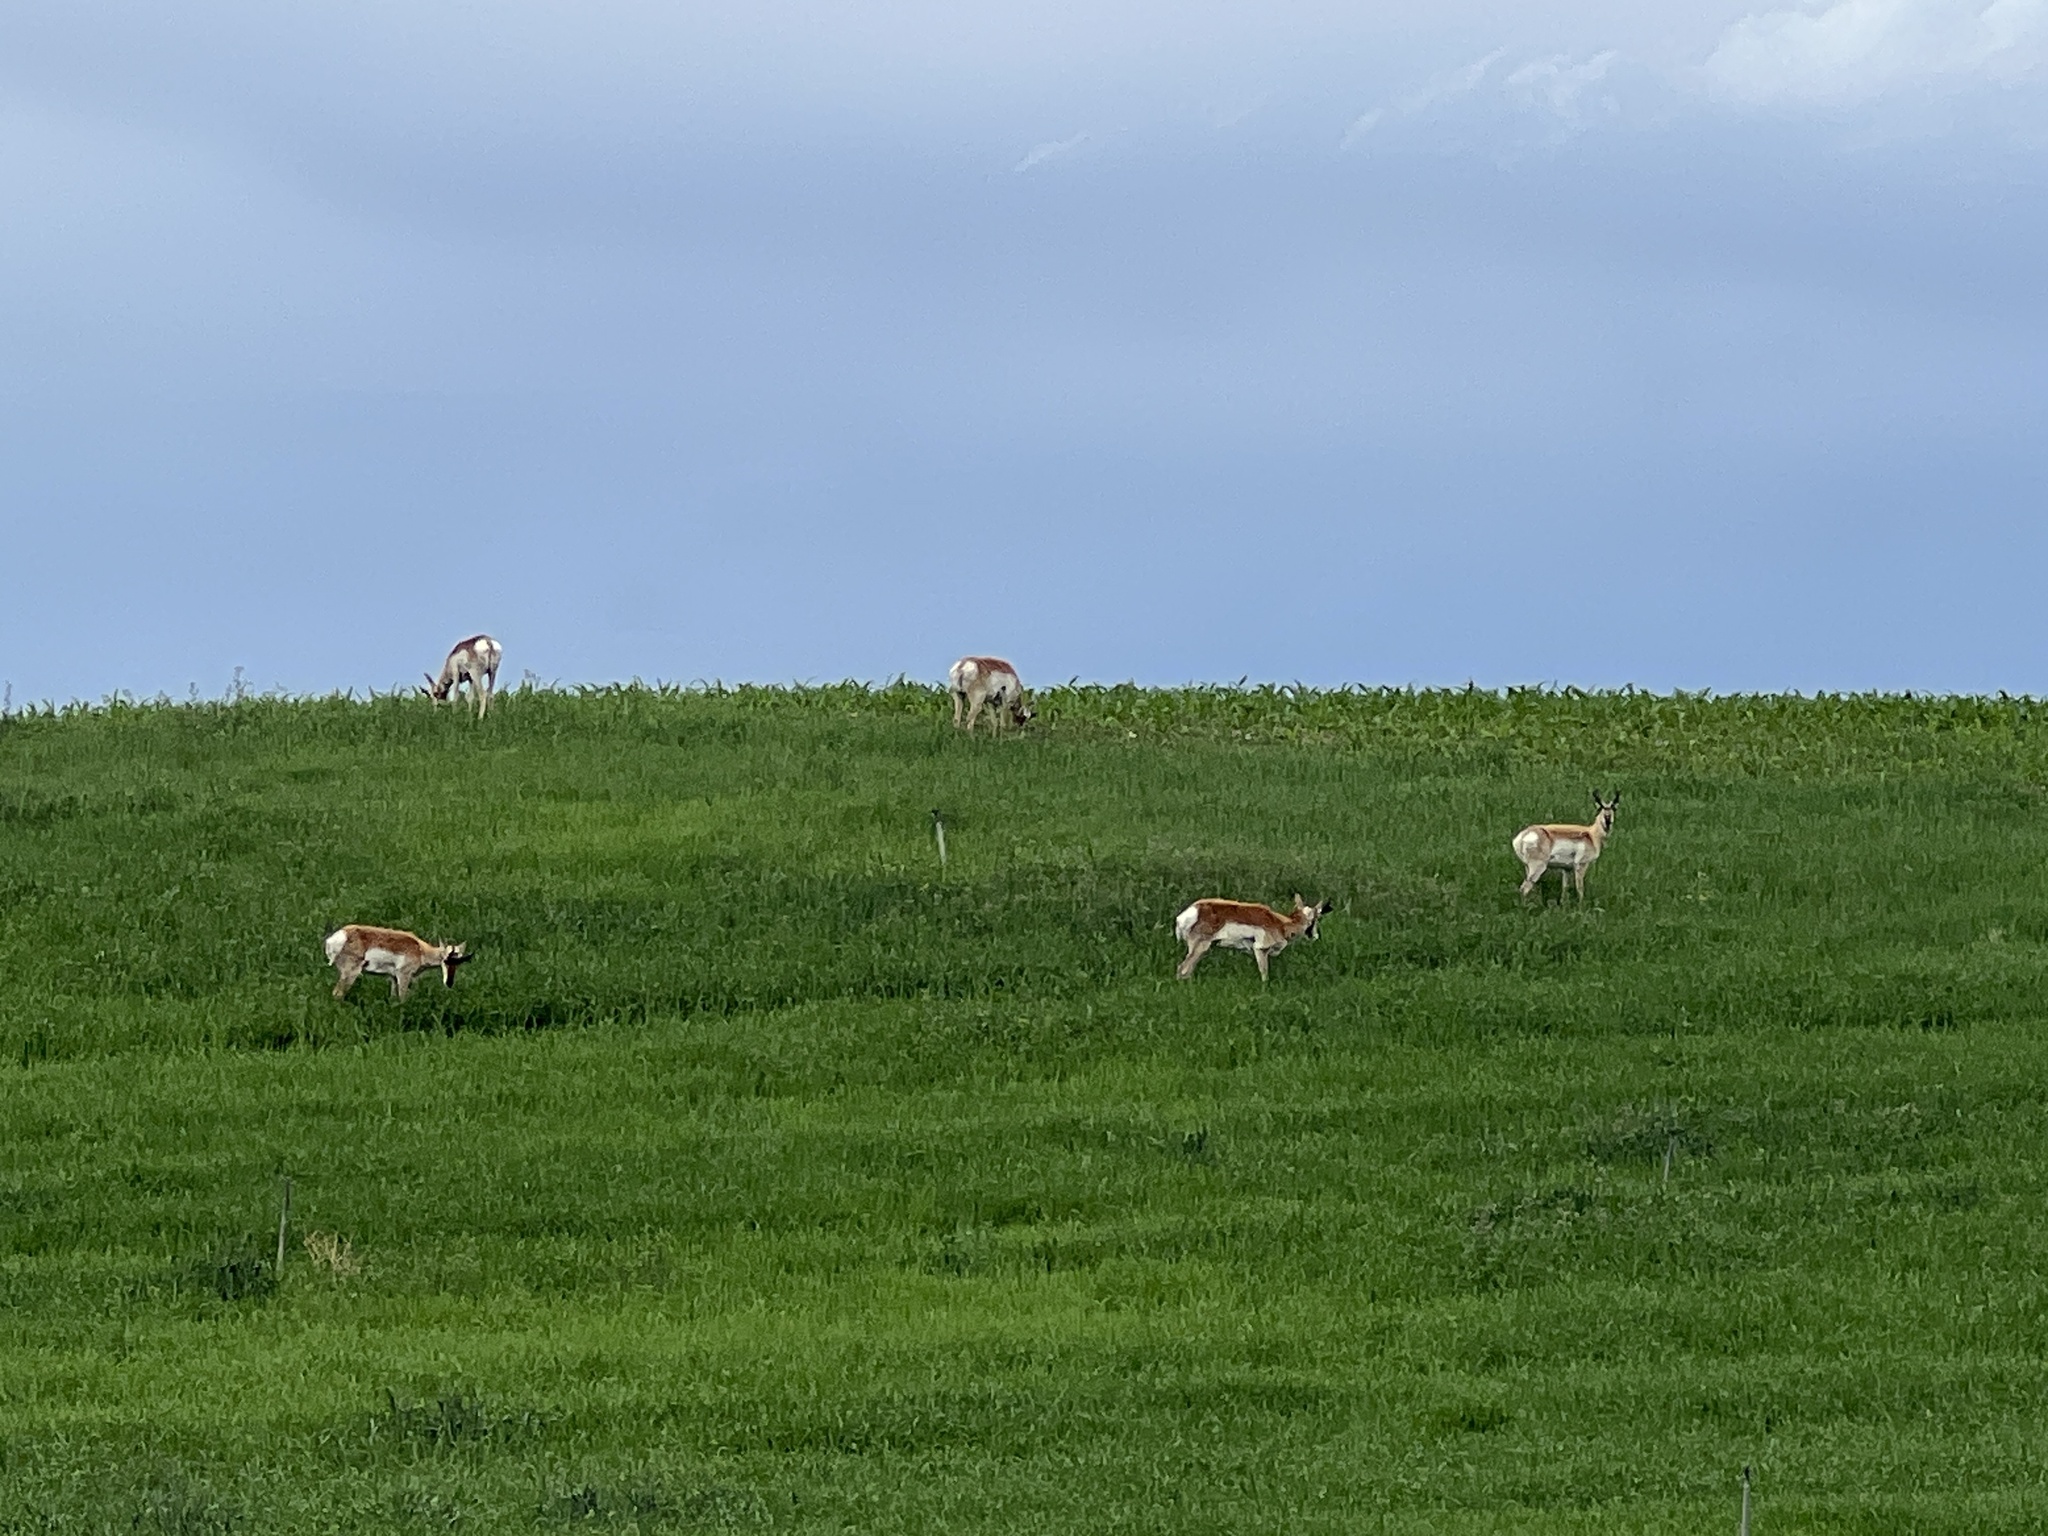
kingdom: Animalia
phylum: Chordata
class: Mammalia
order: Artiodactyla
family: Antilocapridae
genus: Antilocapra
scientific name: Antilocapra americana
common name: Pronghorn
